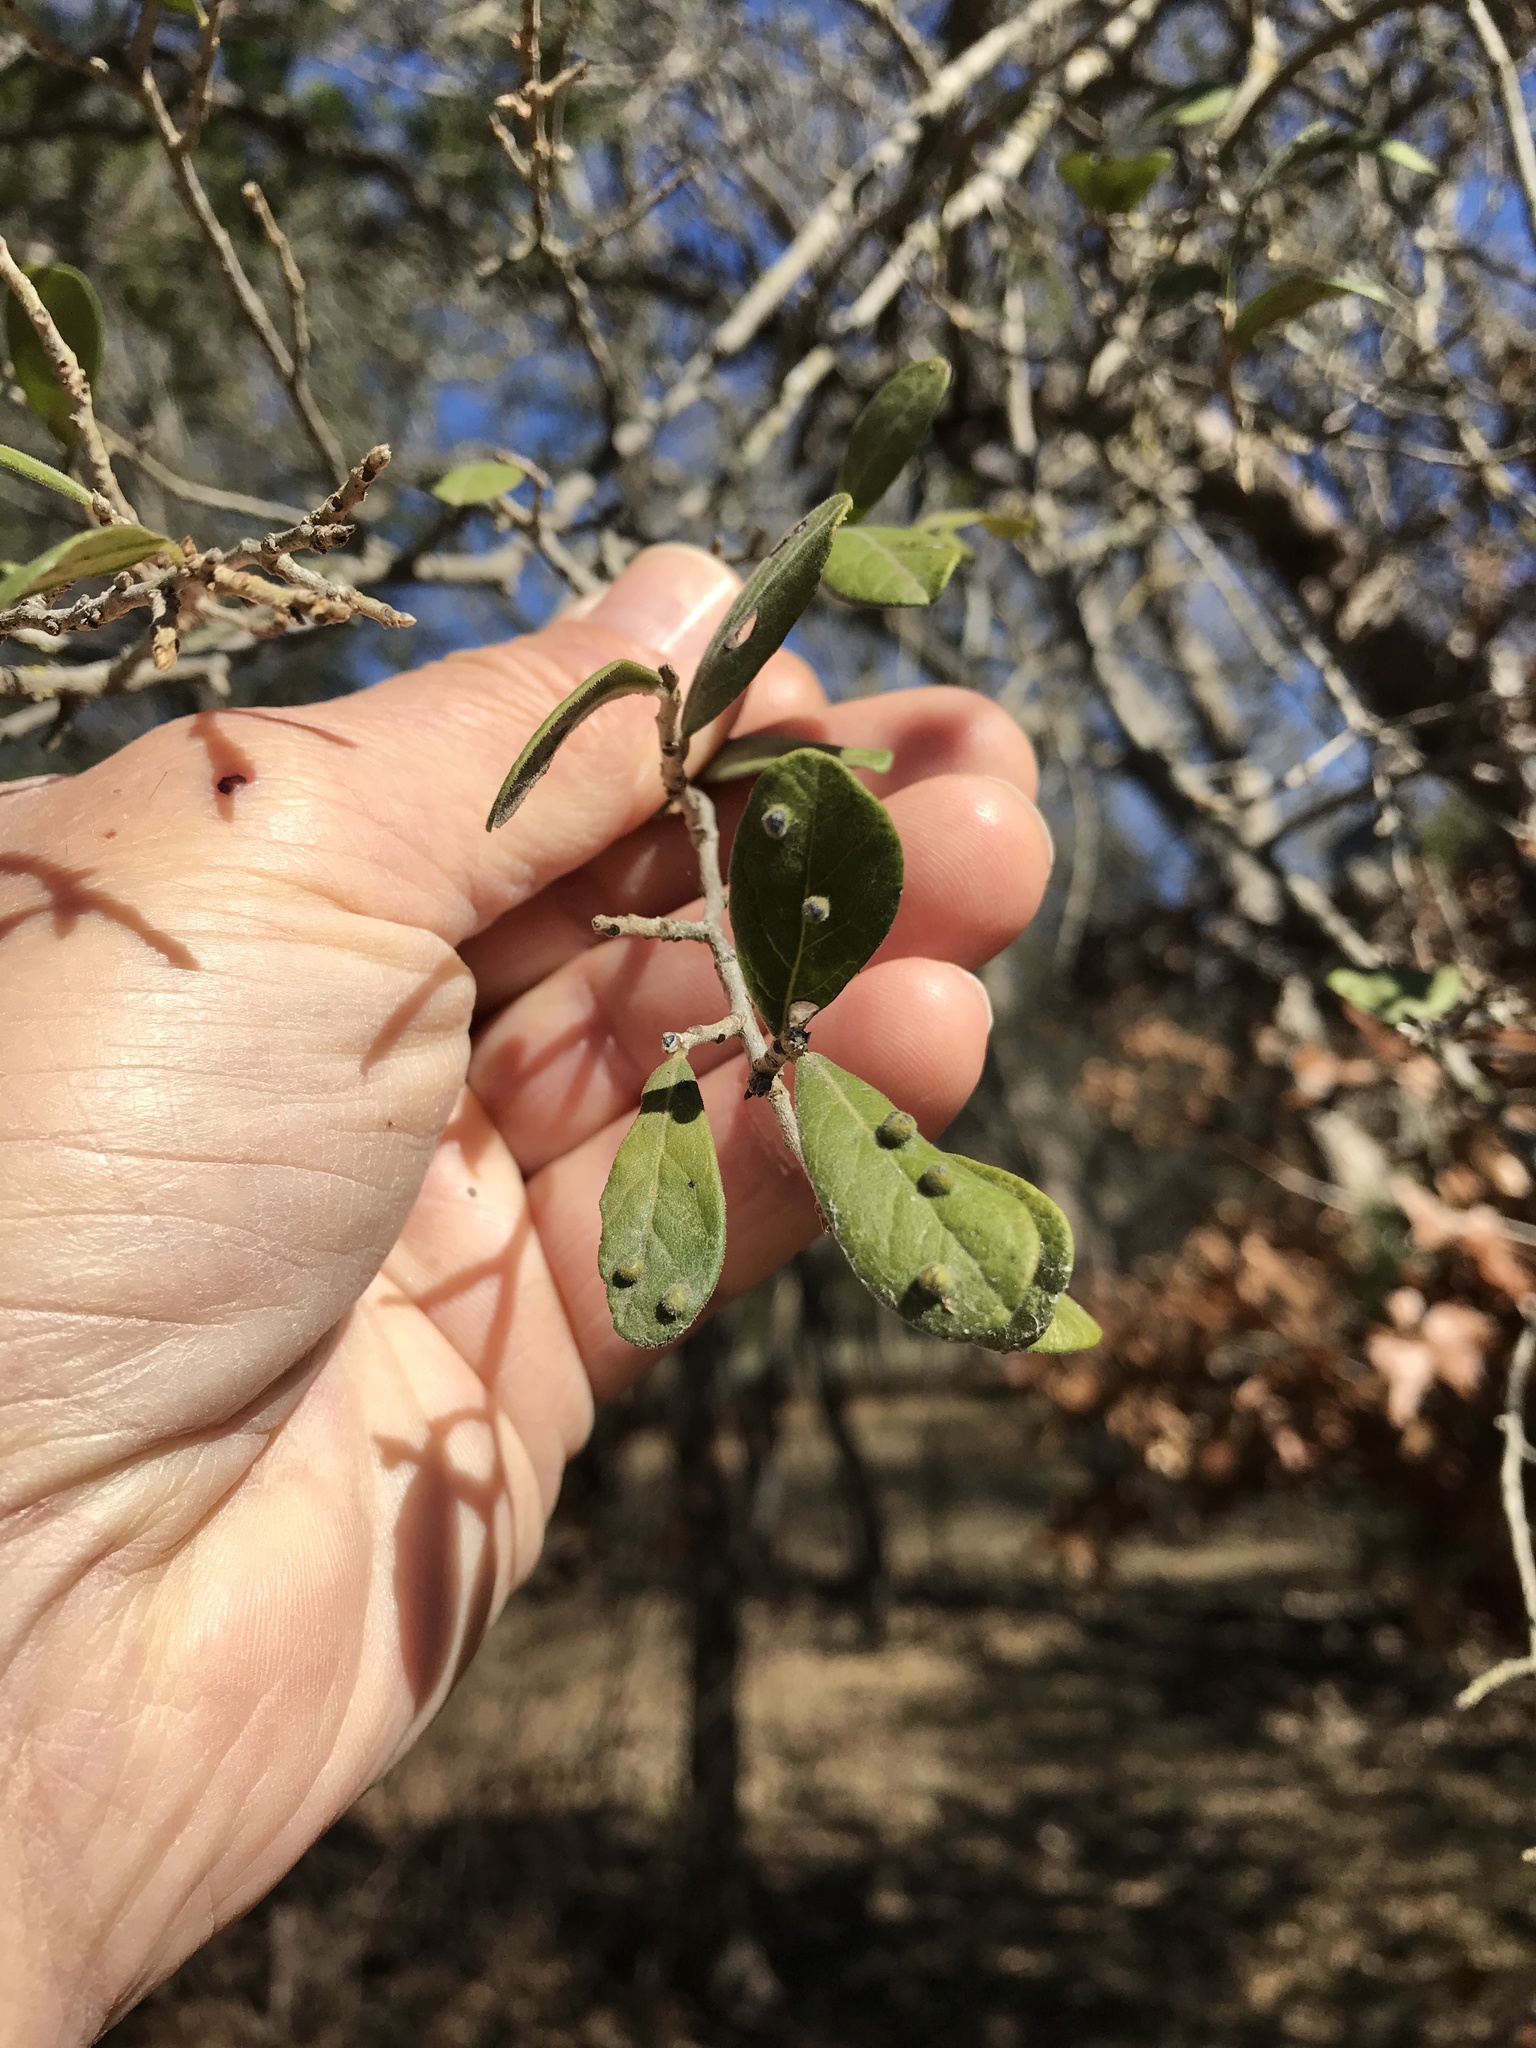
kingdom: Plantae
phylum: Tracheophyta
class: Magnoliopsida
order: Ericales
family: Ebenaceae
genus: Diospyros
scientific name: Diospyros texana
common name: Texas persimmon
